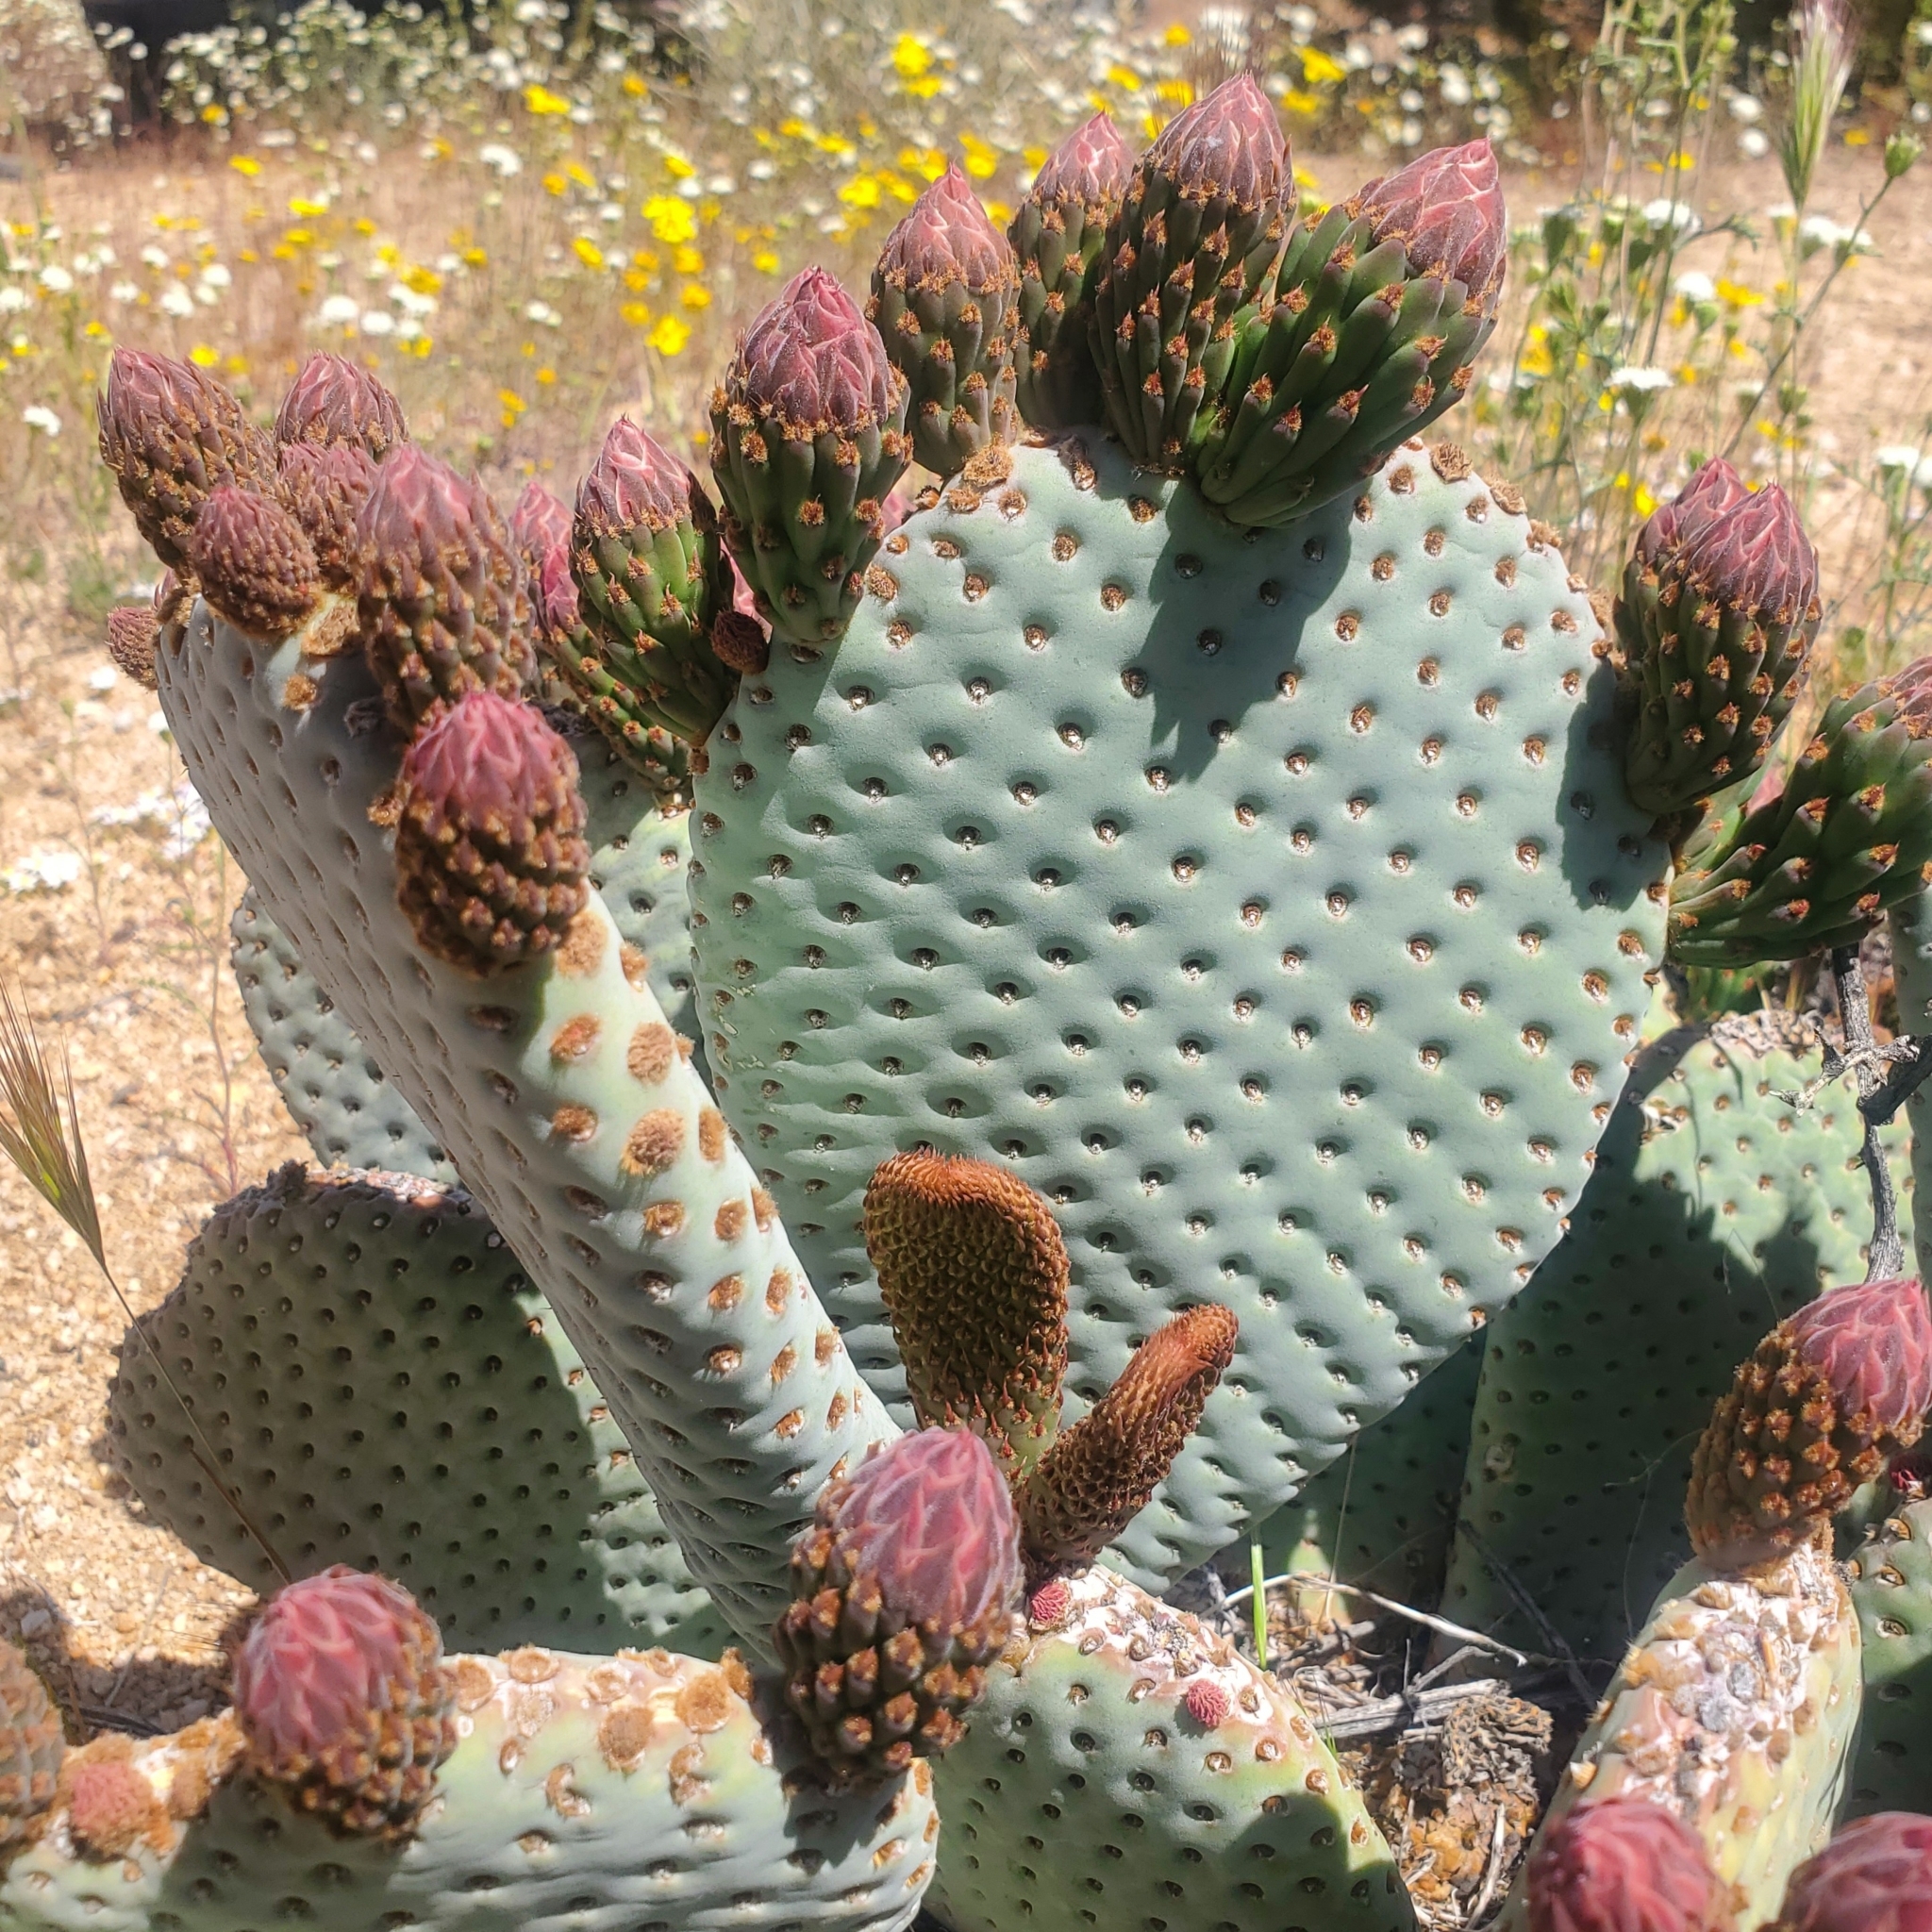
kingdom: Plantae
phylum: Tracheophyta
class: Magnoliopsida
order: Caryophyllales
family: Cactaceae
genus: Opuntia
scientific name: Opuntia basilaris
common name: Beavertail prickly-pear
